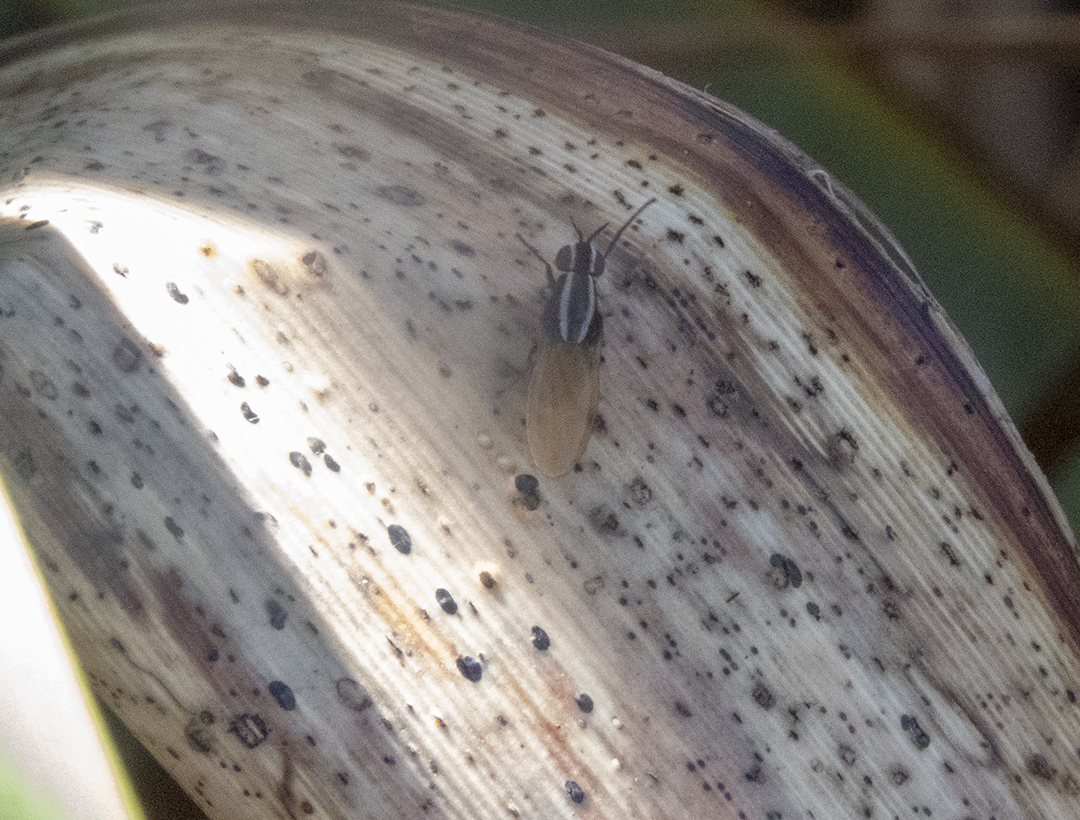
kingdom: Animalia
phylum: Arthropoda
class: Insecta
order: Diptera
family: Lauxaniidae
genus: Poecilohetaerella
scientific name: Poecilohetaerella bilineata
